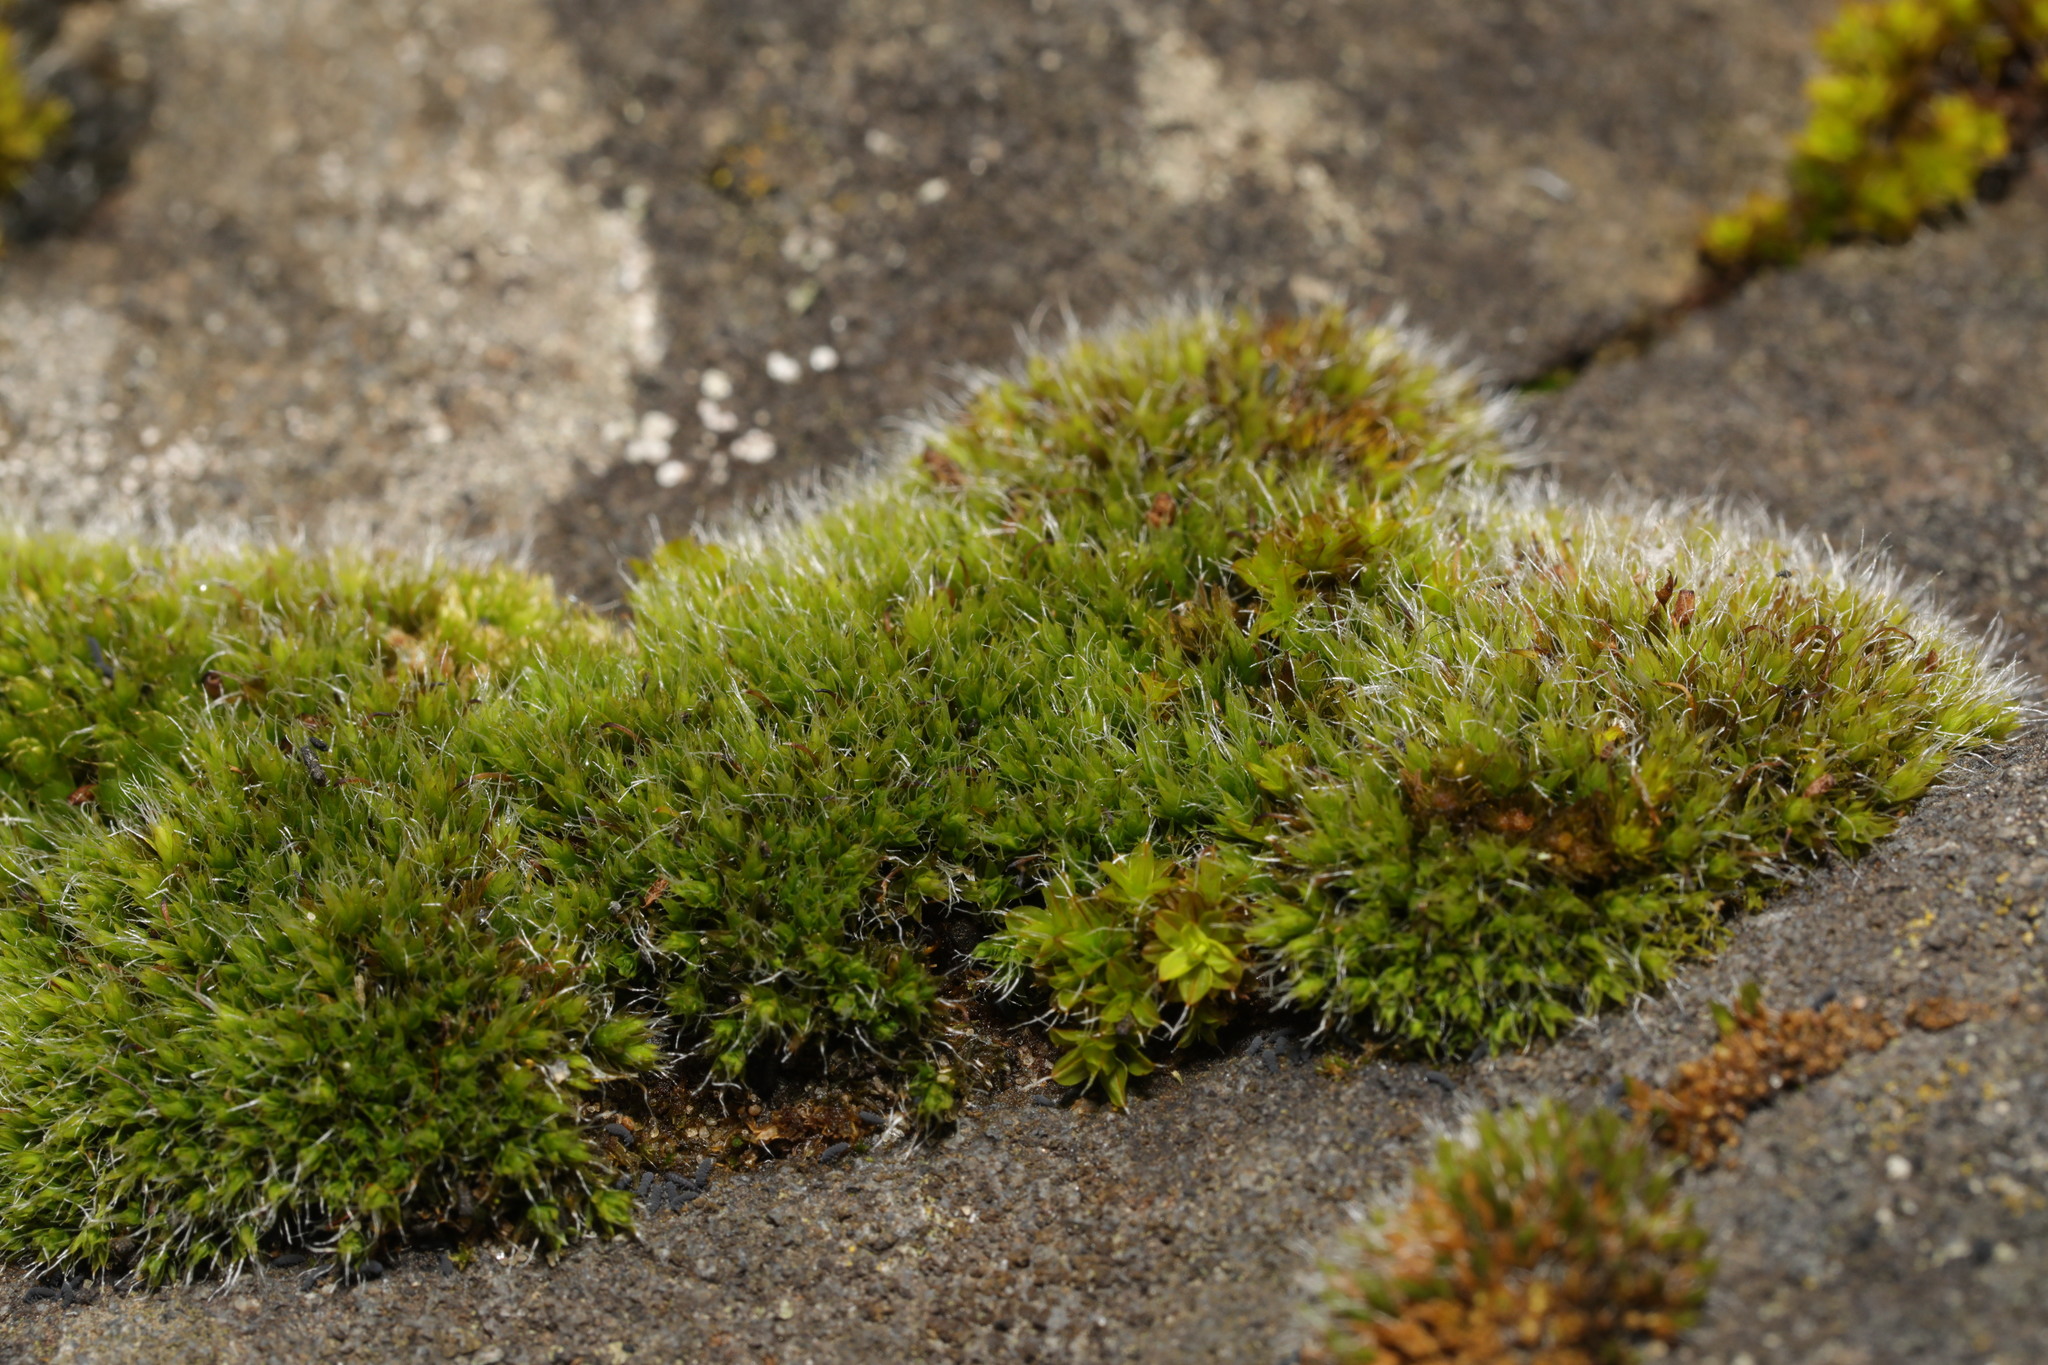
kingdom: Plantae
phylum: Bryophyta
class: Bryopsida
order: Grimmiales
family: Grimmiaceae
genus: Grimmia
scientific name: Grimmia pulvinata
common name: Grey-cushioned grimmia
